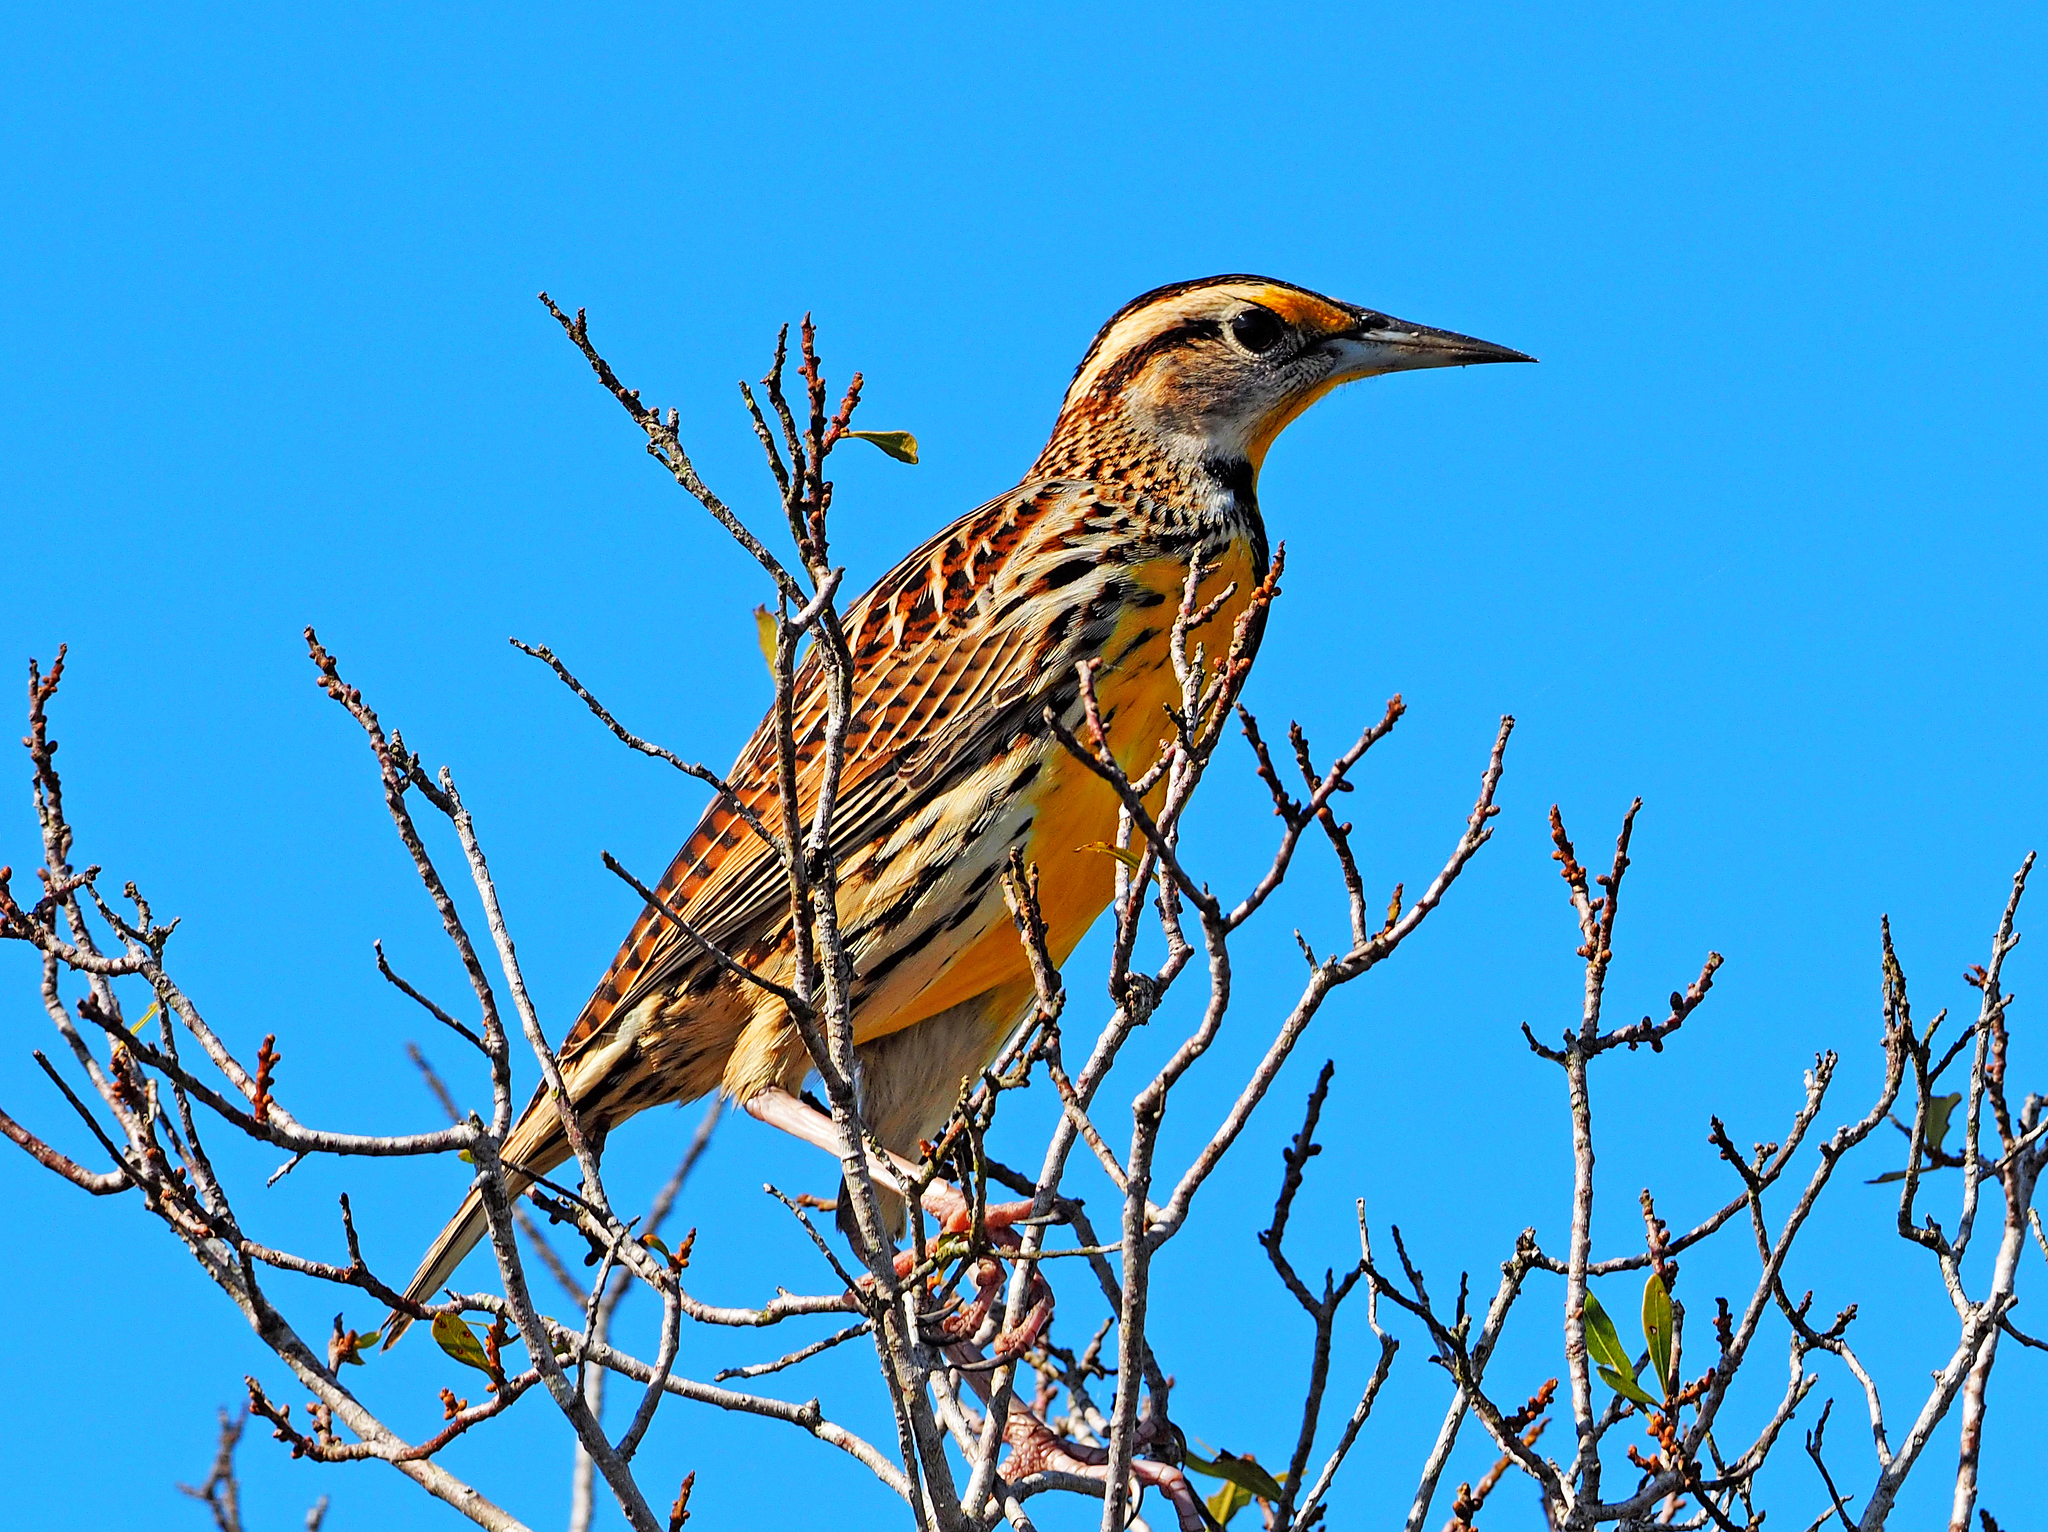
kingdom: Animalia
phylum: Chordata
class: Aves
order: Passeriformes
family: Icteridae
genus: Sturnella
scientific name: Sturnella magna
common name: Eastern meadowlark
